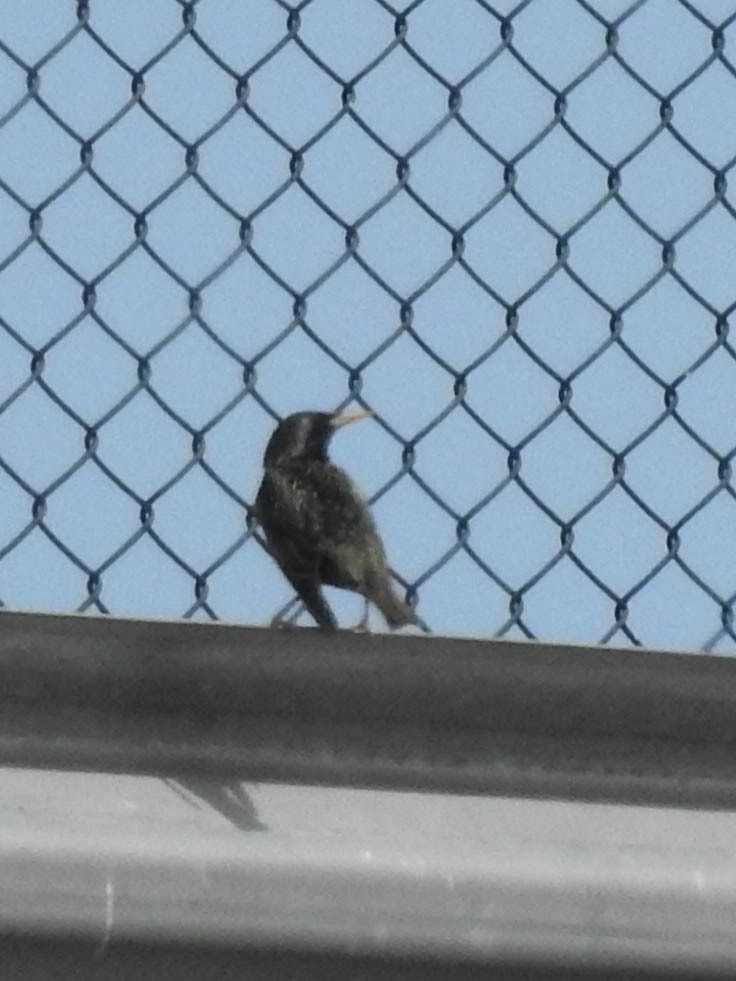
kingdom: Animalia
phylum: Chordata
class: Aves
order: Passeriformes
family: Sturnidae
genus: Sturnus
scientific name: Sturnus vulgaris
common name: Common starling
